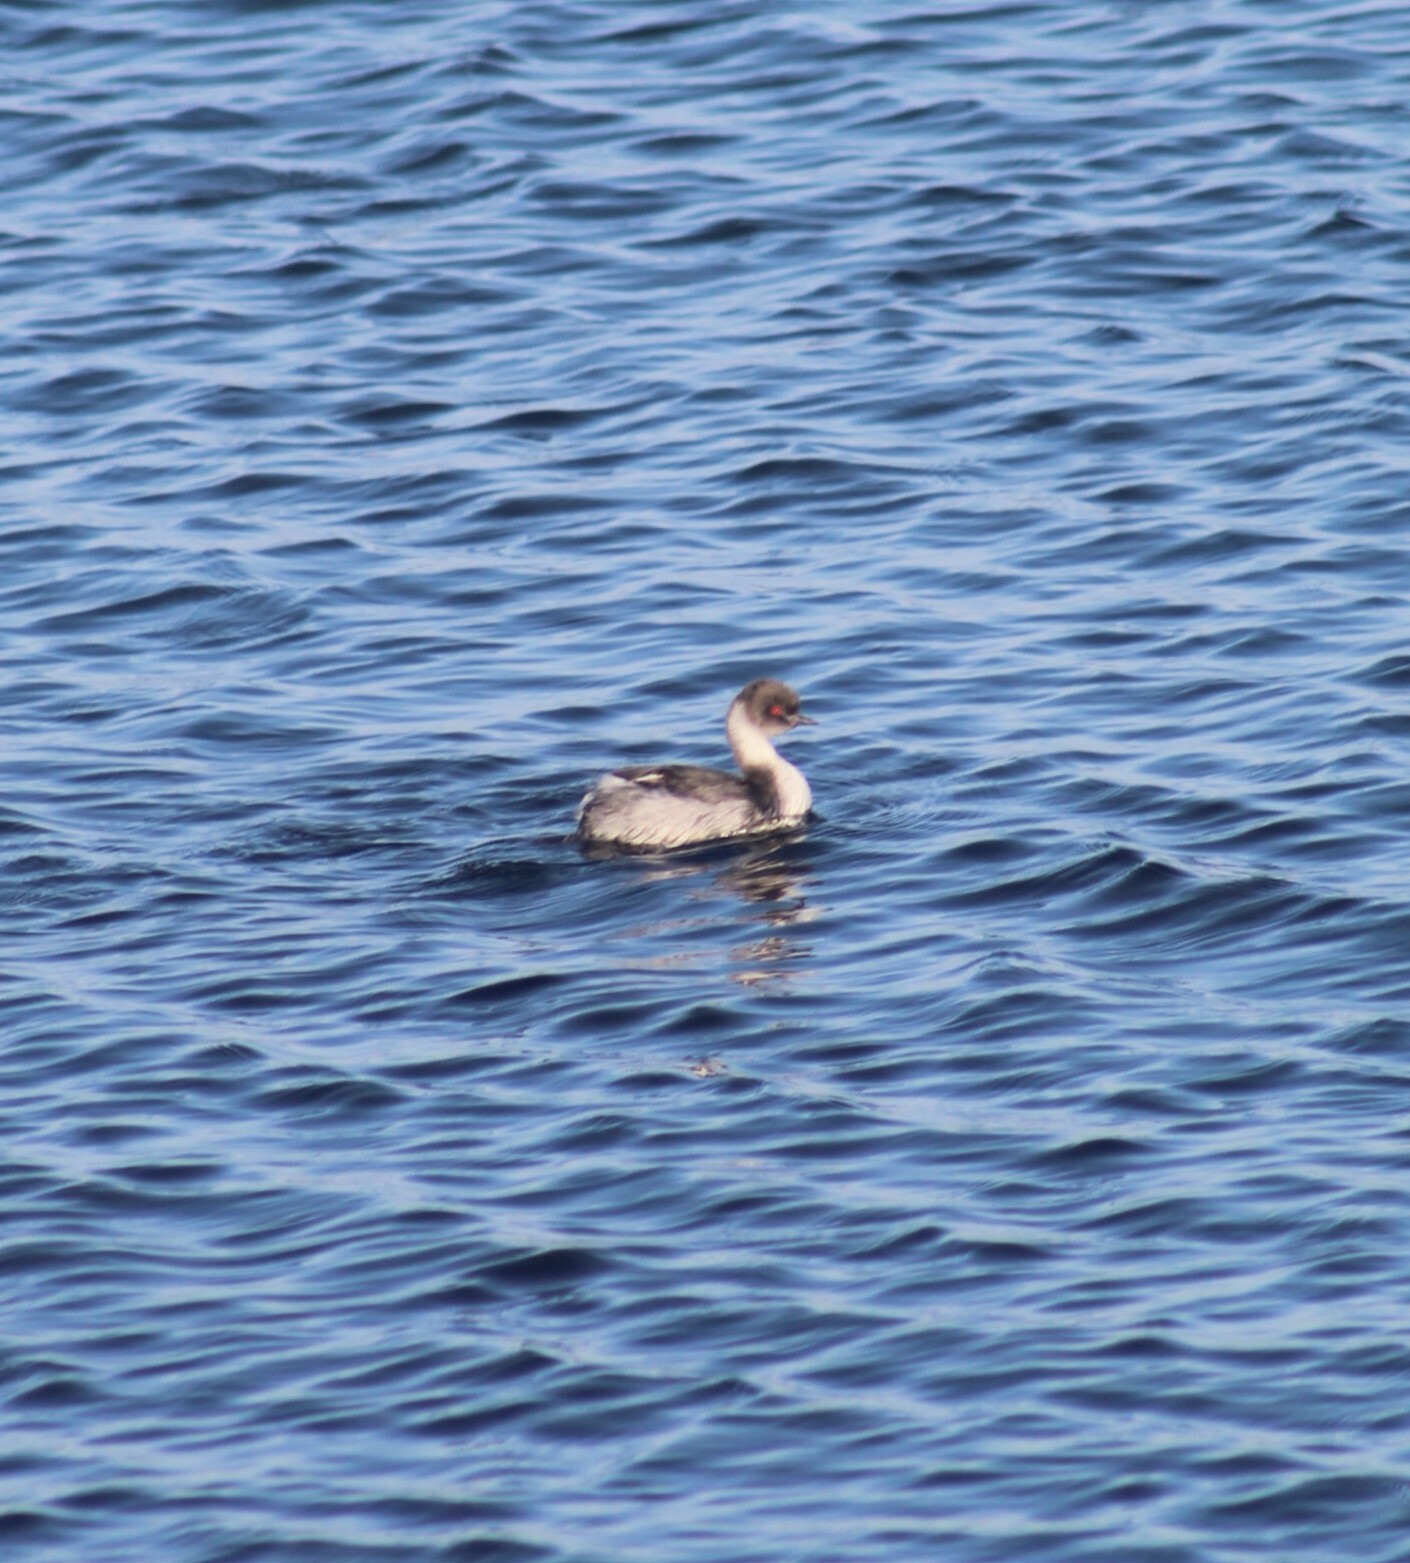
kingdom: Animalia
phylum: Chordata
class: Aves
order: Podicipediformes
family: Podicipedidae
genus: Podiceps
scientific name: Podiceps occipitalis
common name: Silvery grebe
